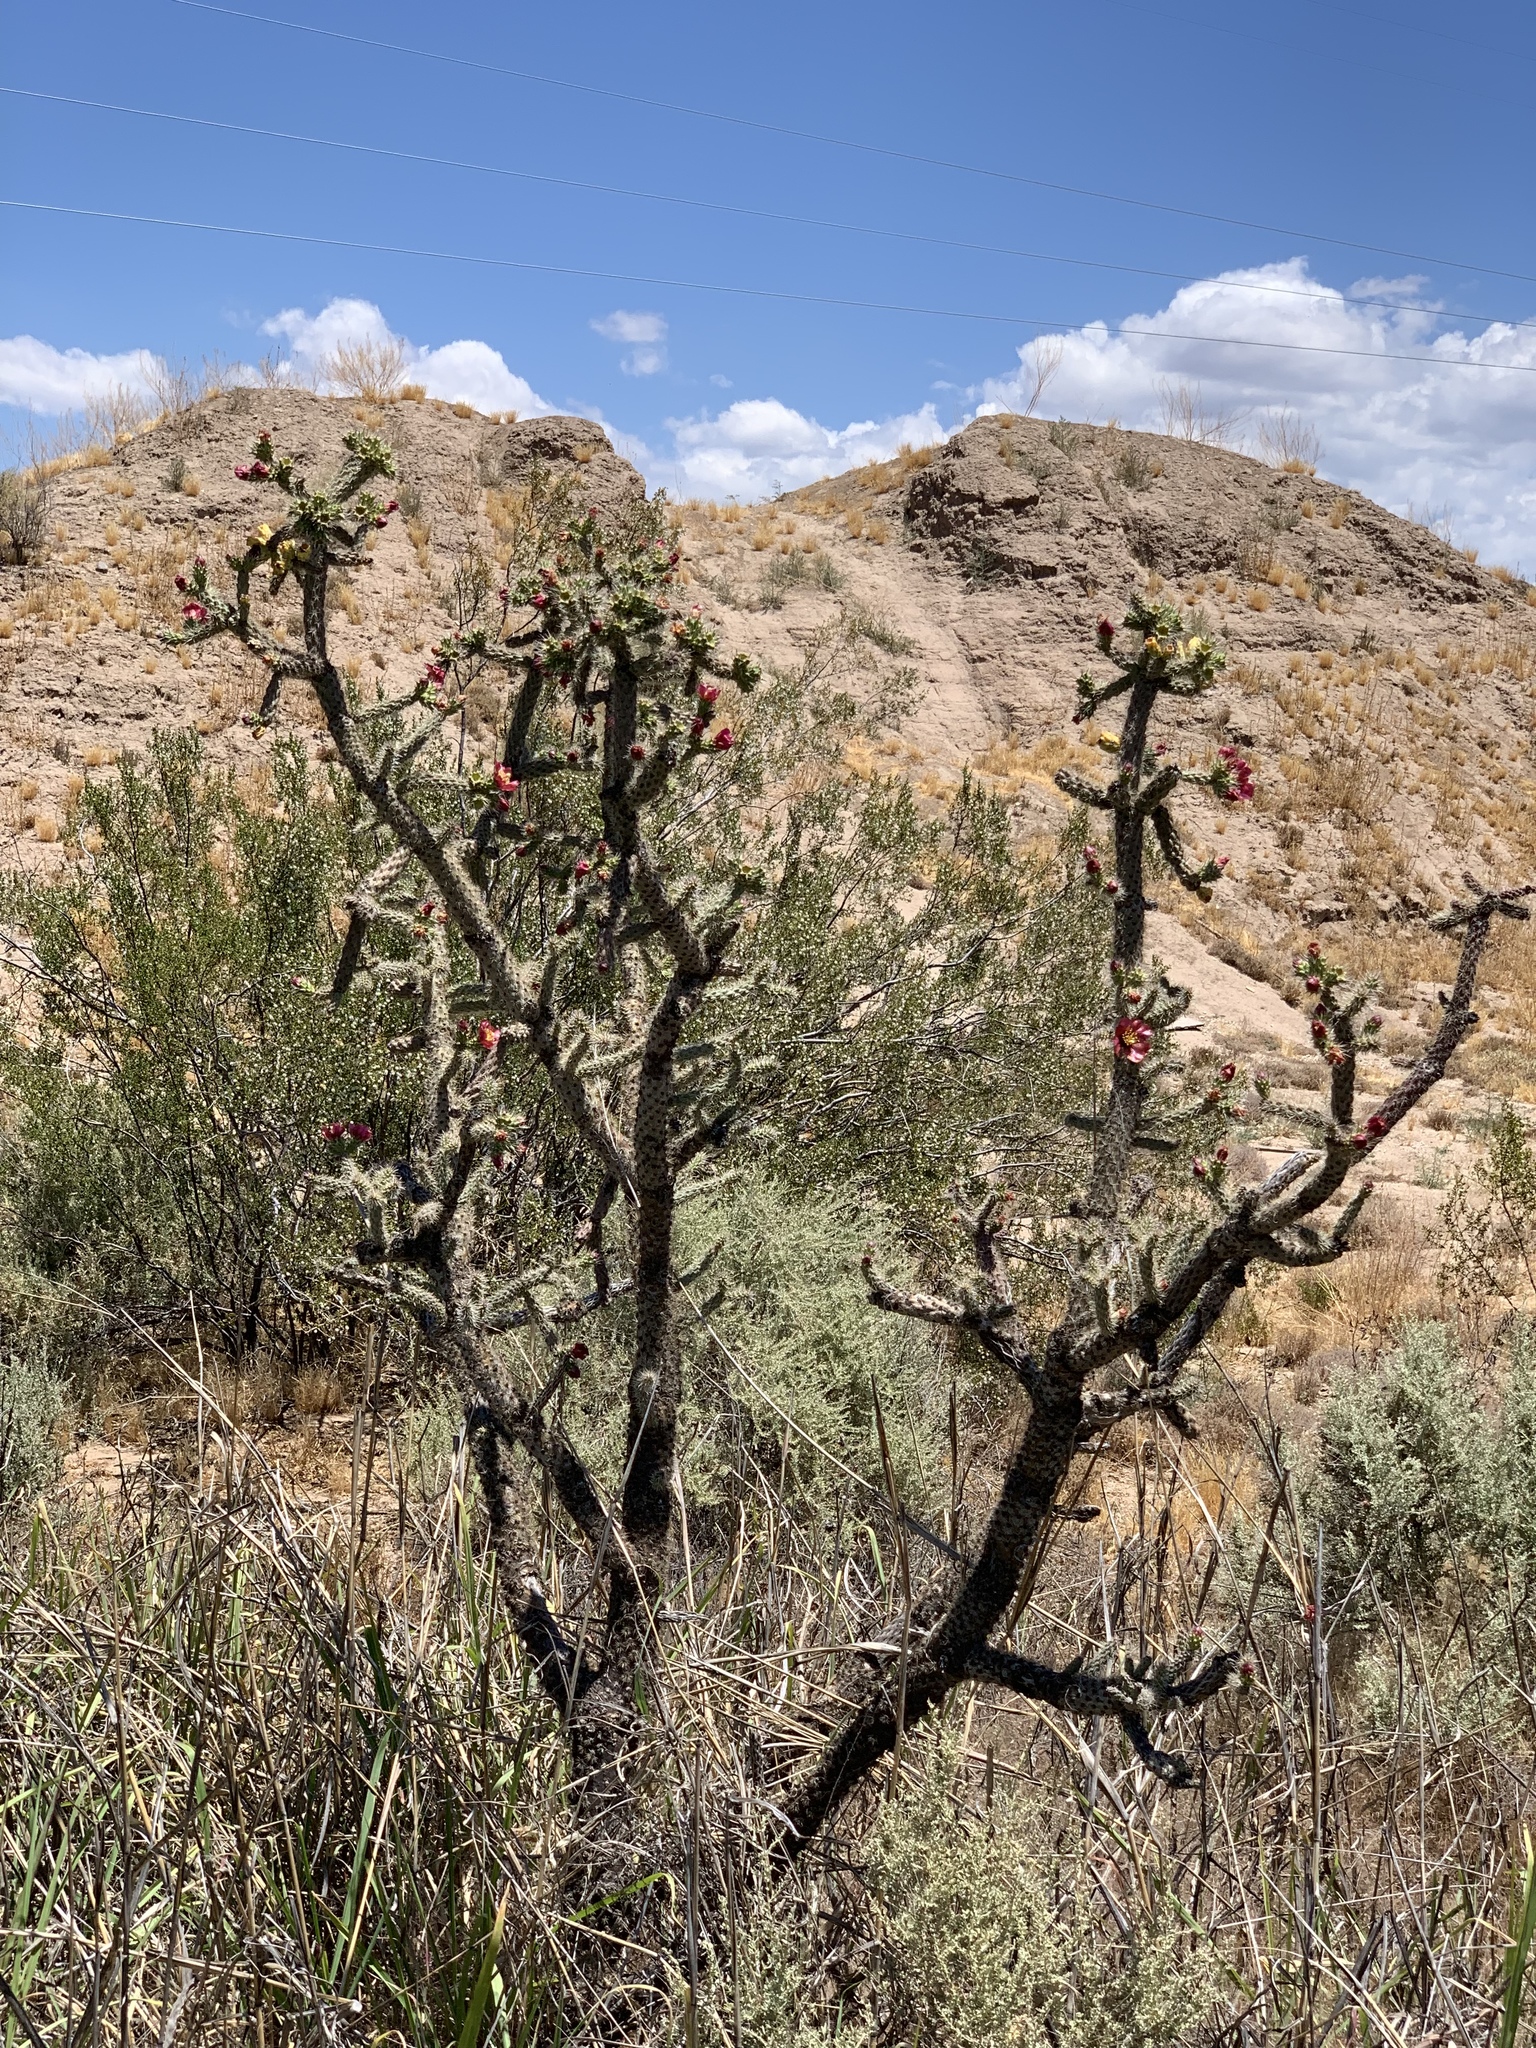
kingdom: Plantae
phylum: Tracheophyta
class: Magnoliopsida
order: Caryophyllales
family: Cactaceae
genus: Cylindropuntia
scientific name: Cylindropuntia imbricata
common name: Candelabrum cactus
